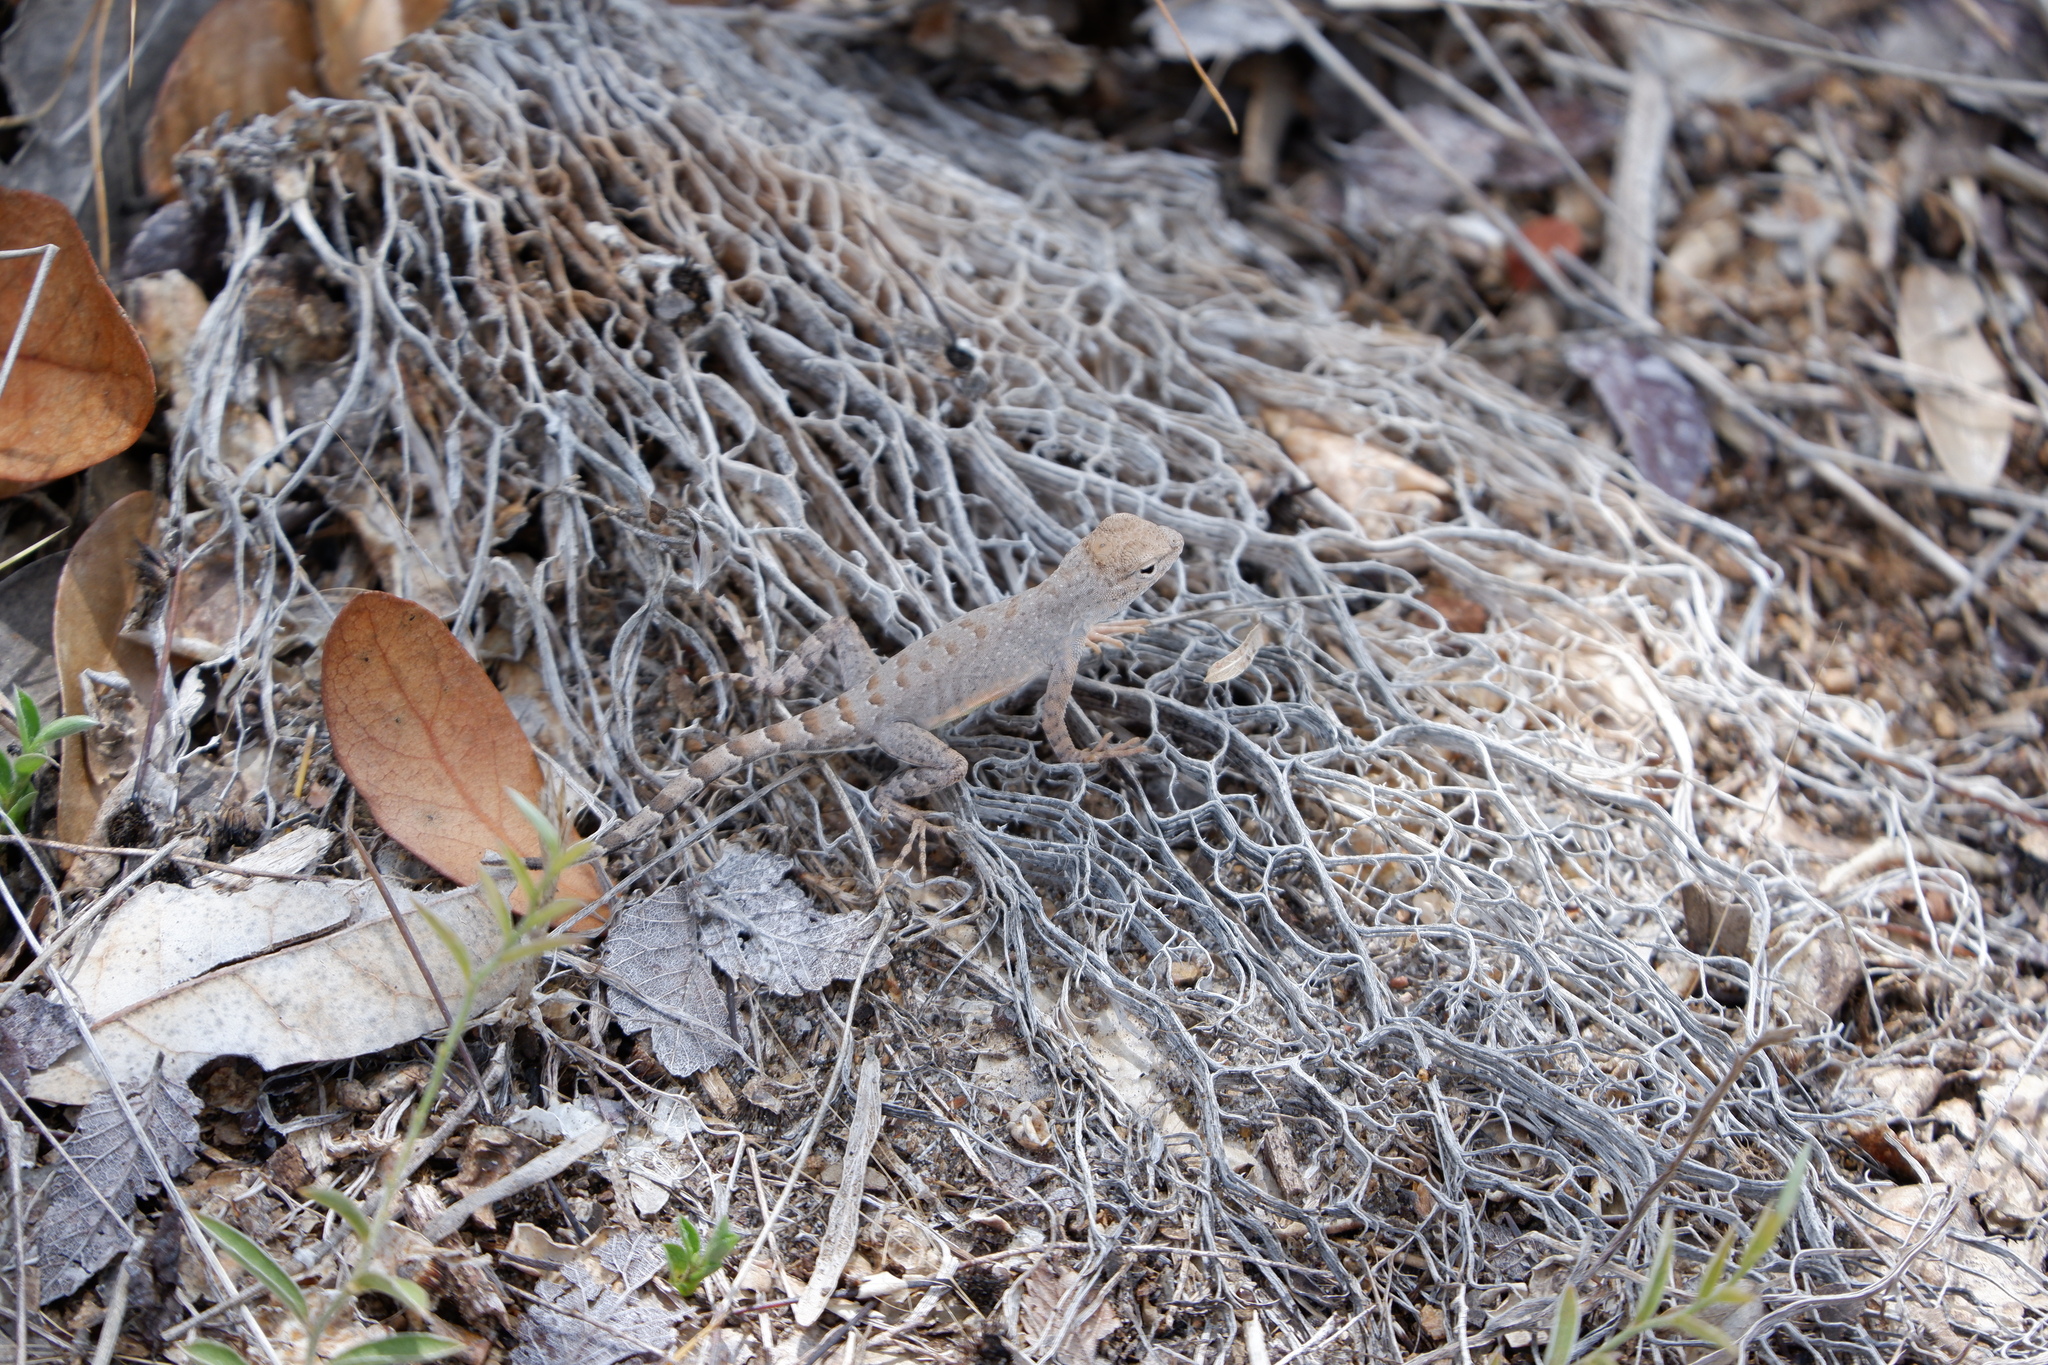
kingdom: Animalia
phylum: Chordata
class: Squamata
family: Phrynosomatidae
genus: Cophosaurus
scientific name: Cophosaurus texanus
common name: Greater earless lizard
